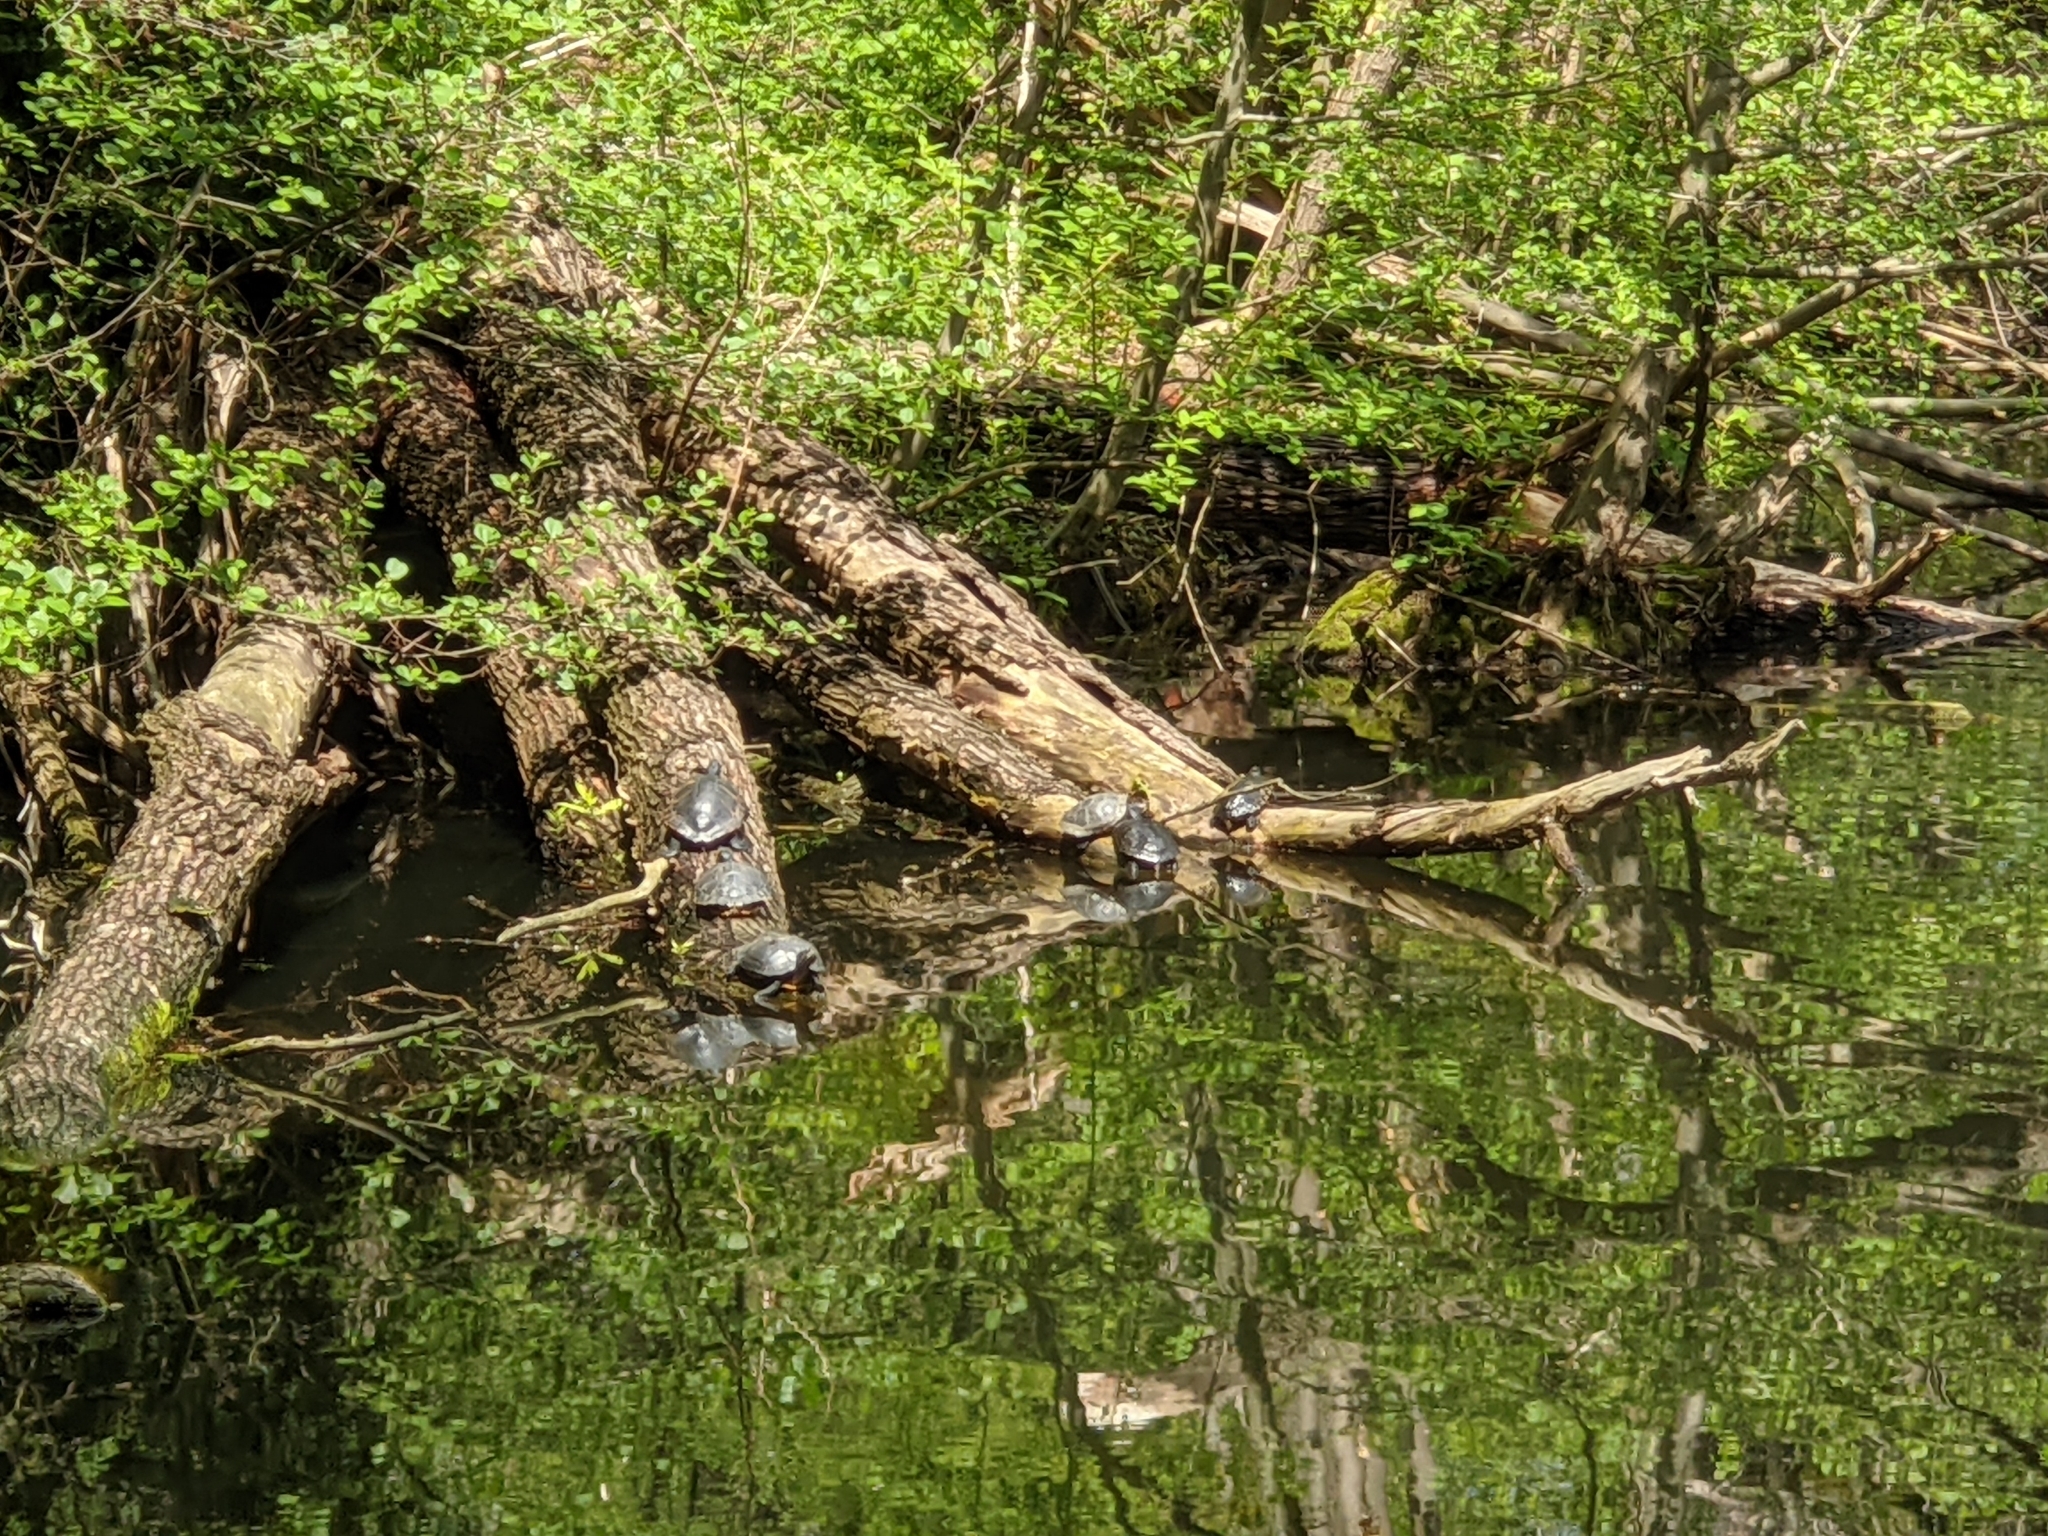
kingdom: Animalia
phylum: Chordata
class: Testudines
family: Emydidae
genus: Trachemys
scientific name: Trachemys scripta
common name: Slider
